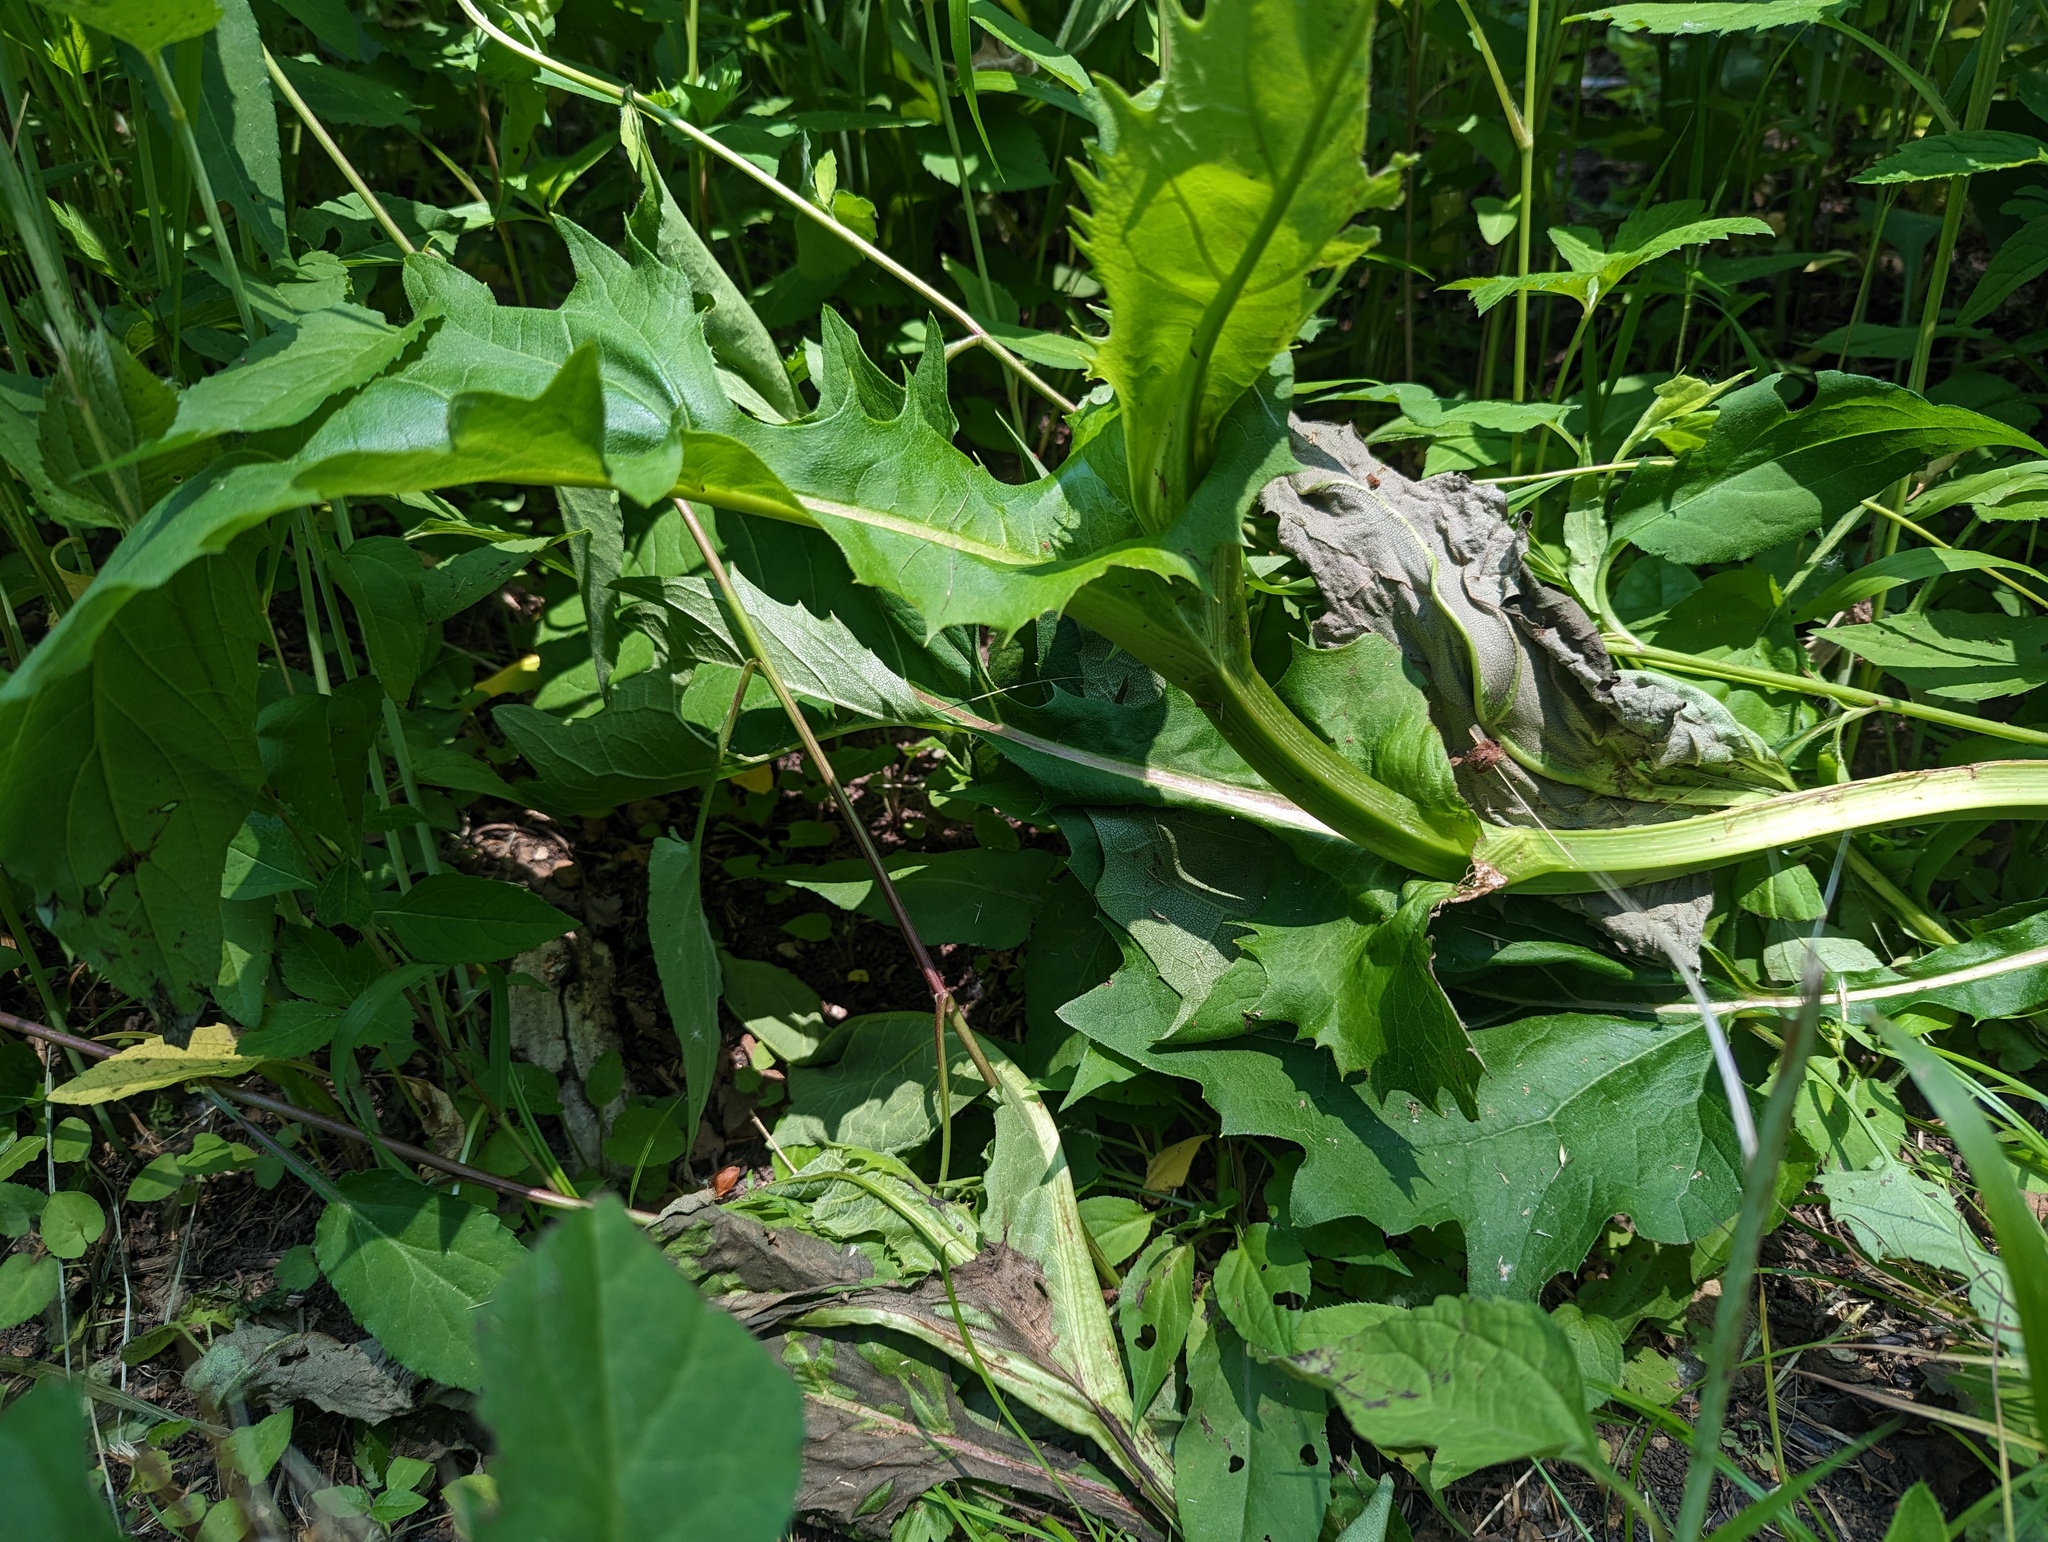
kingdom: Plantae
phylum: Tracheophyta
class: Magnoliopsida
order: Asterales
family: Asteraceae
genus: Silphium
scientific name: Silphium perfoliatum
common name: Cup-plant
